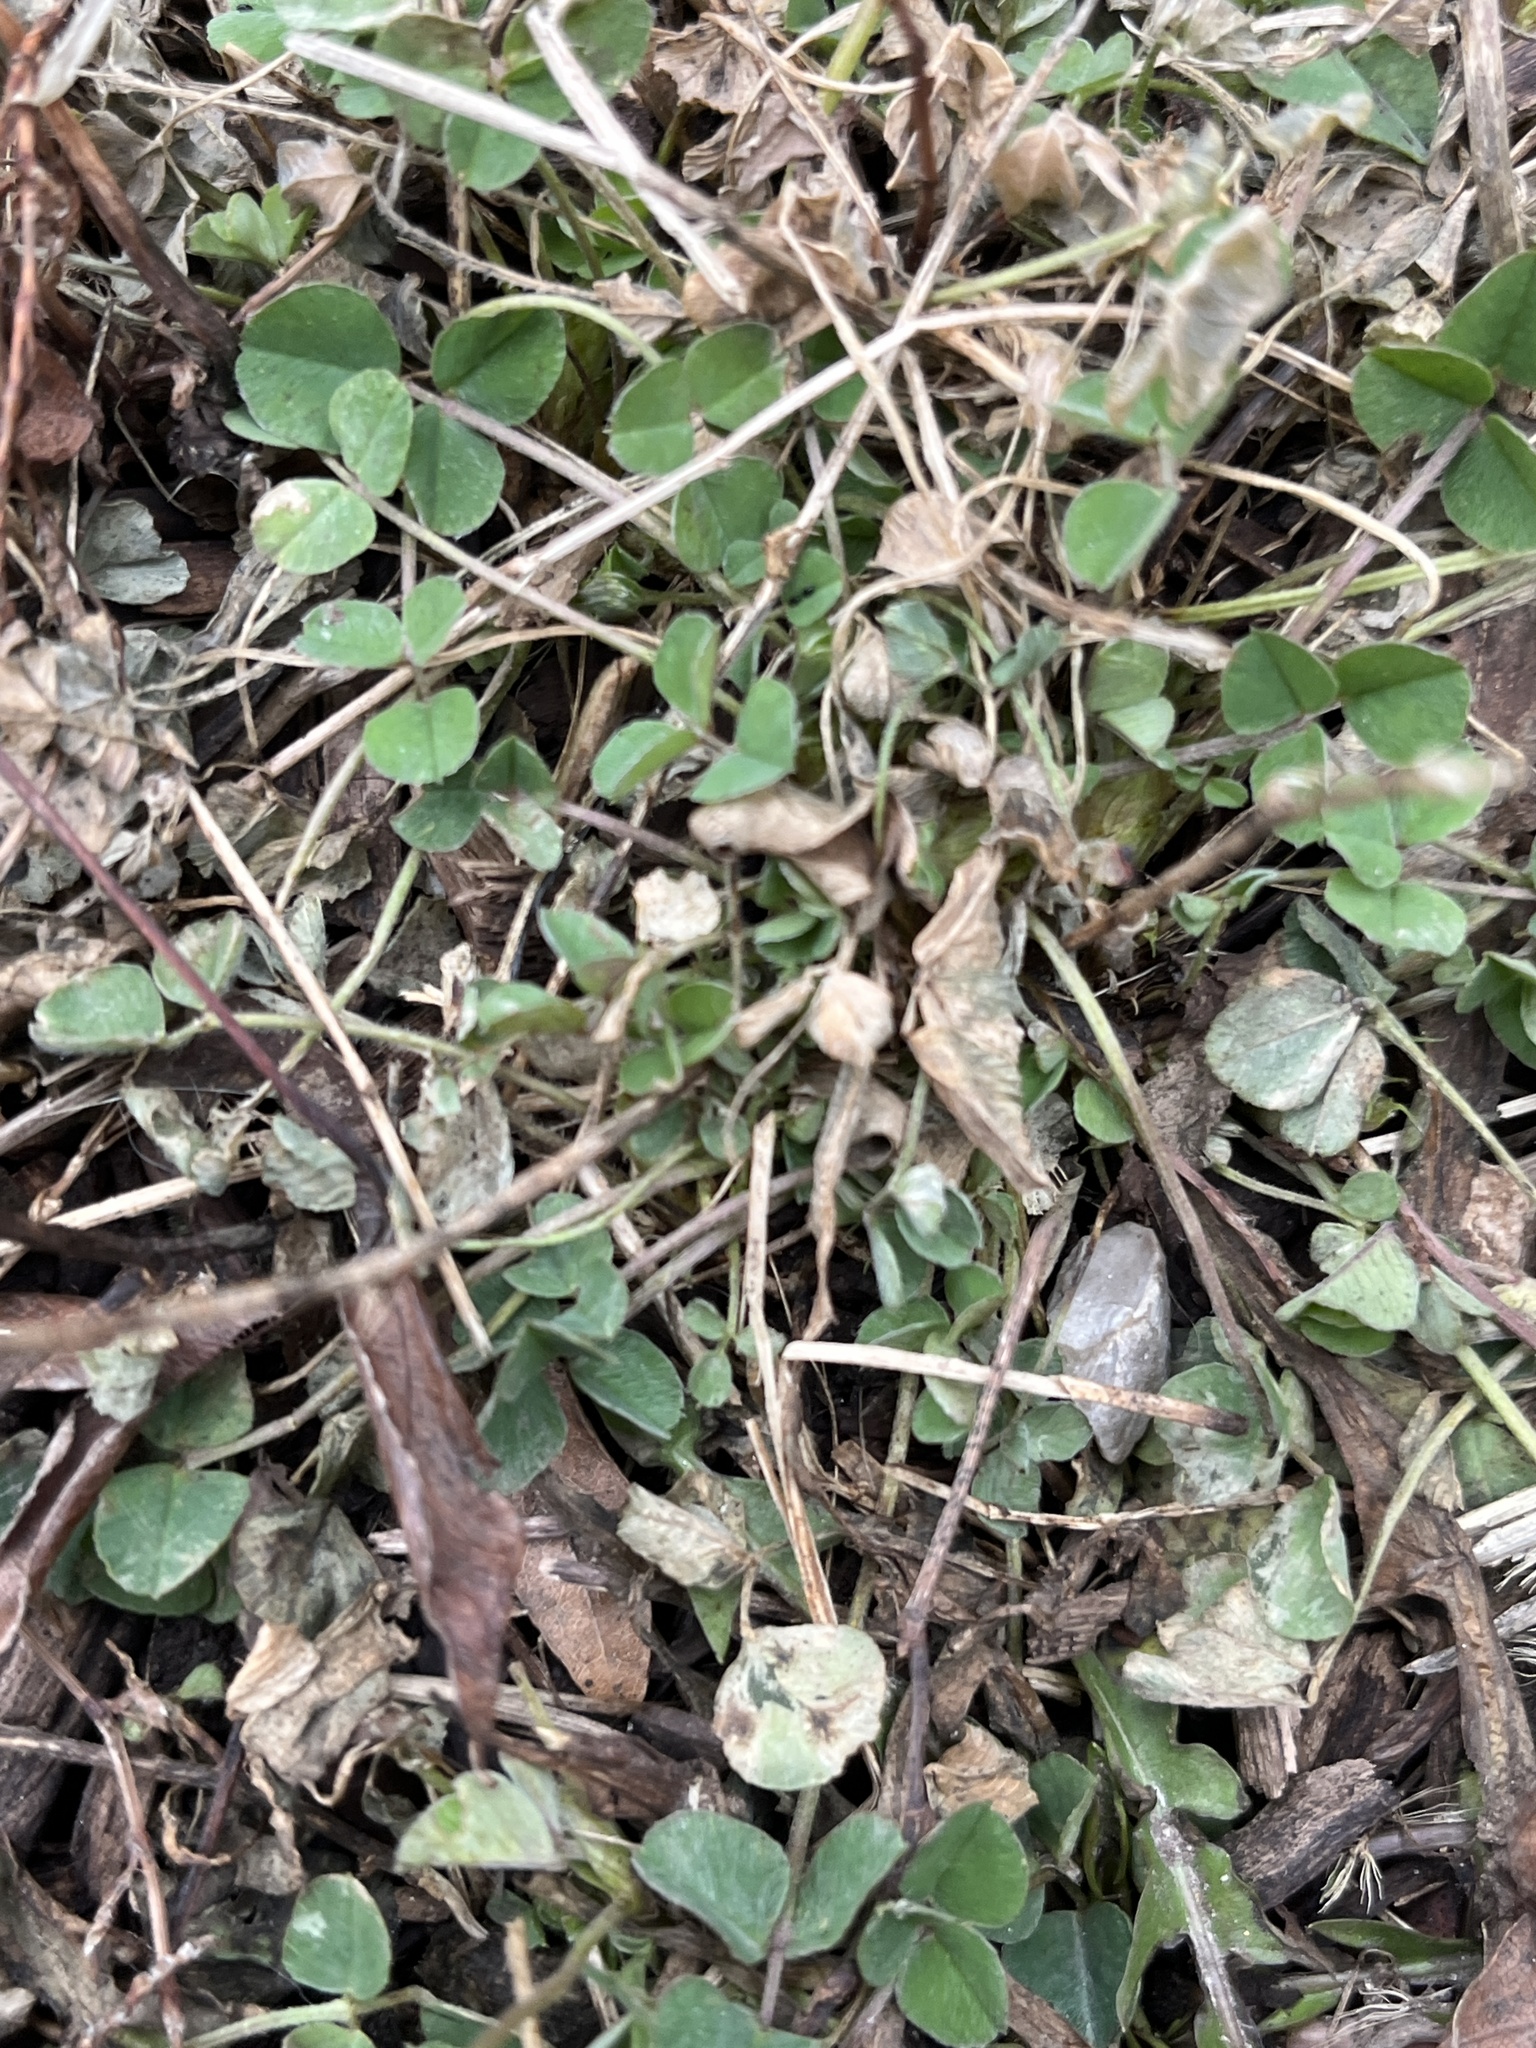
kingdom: Plantae
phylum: Tracheophyta
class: Magnoliopsida
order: Fabales
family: Fabaceae
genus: Medicago
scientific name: Medicago lupulina
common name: Black medick
